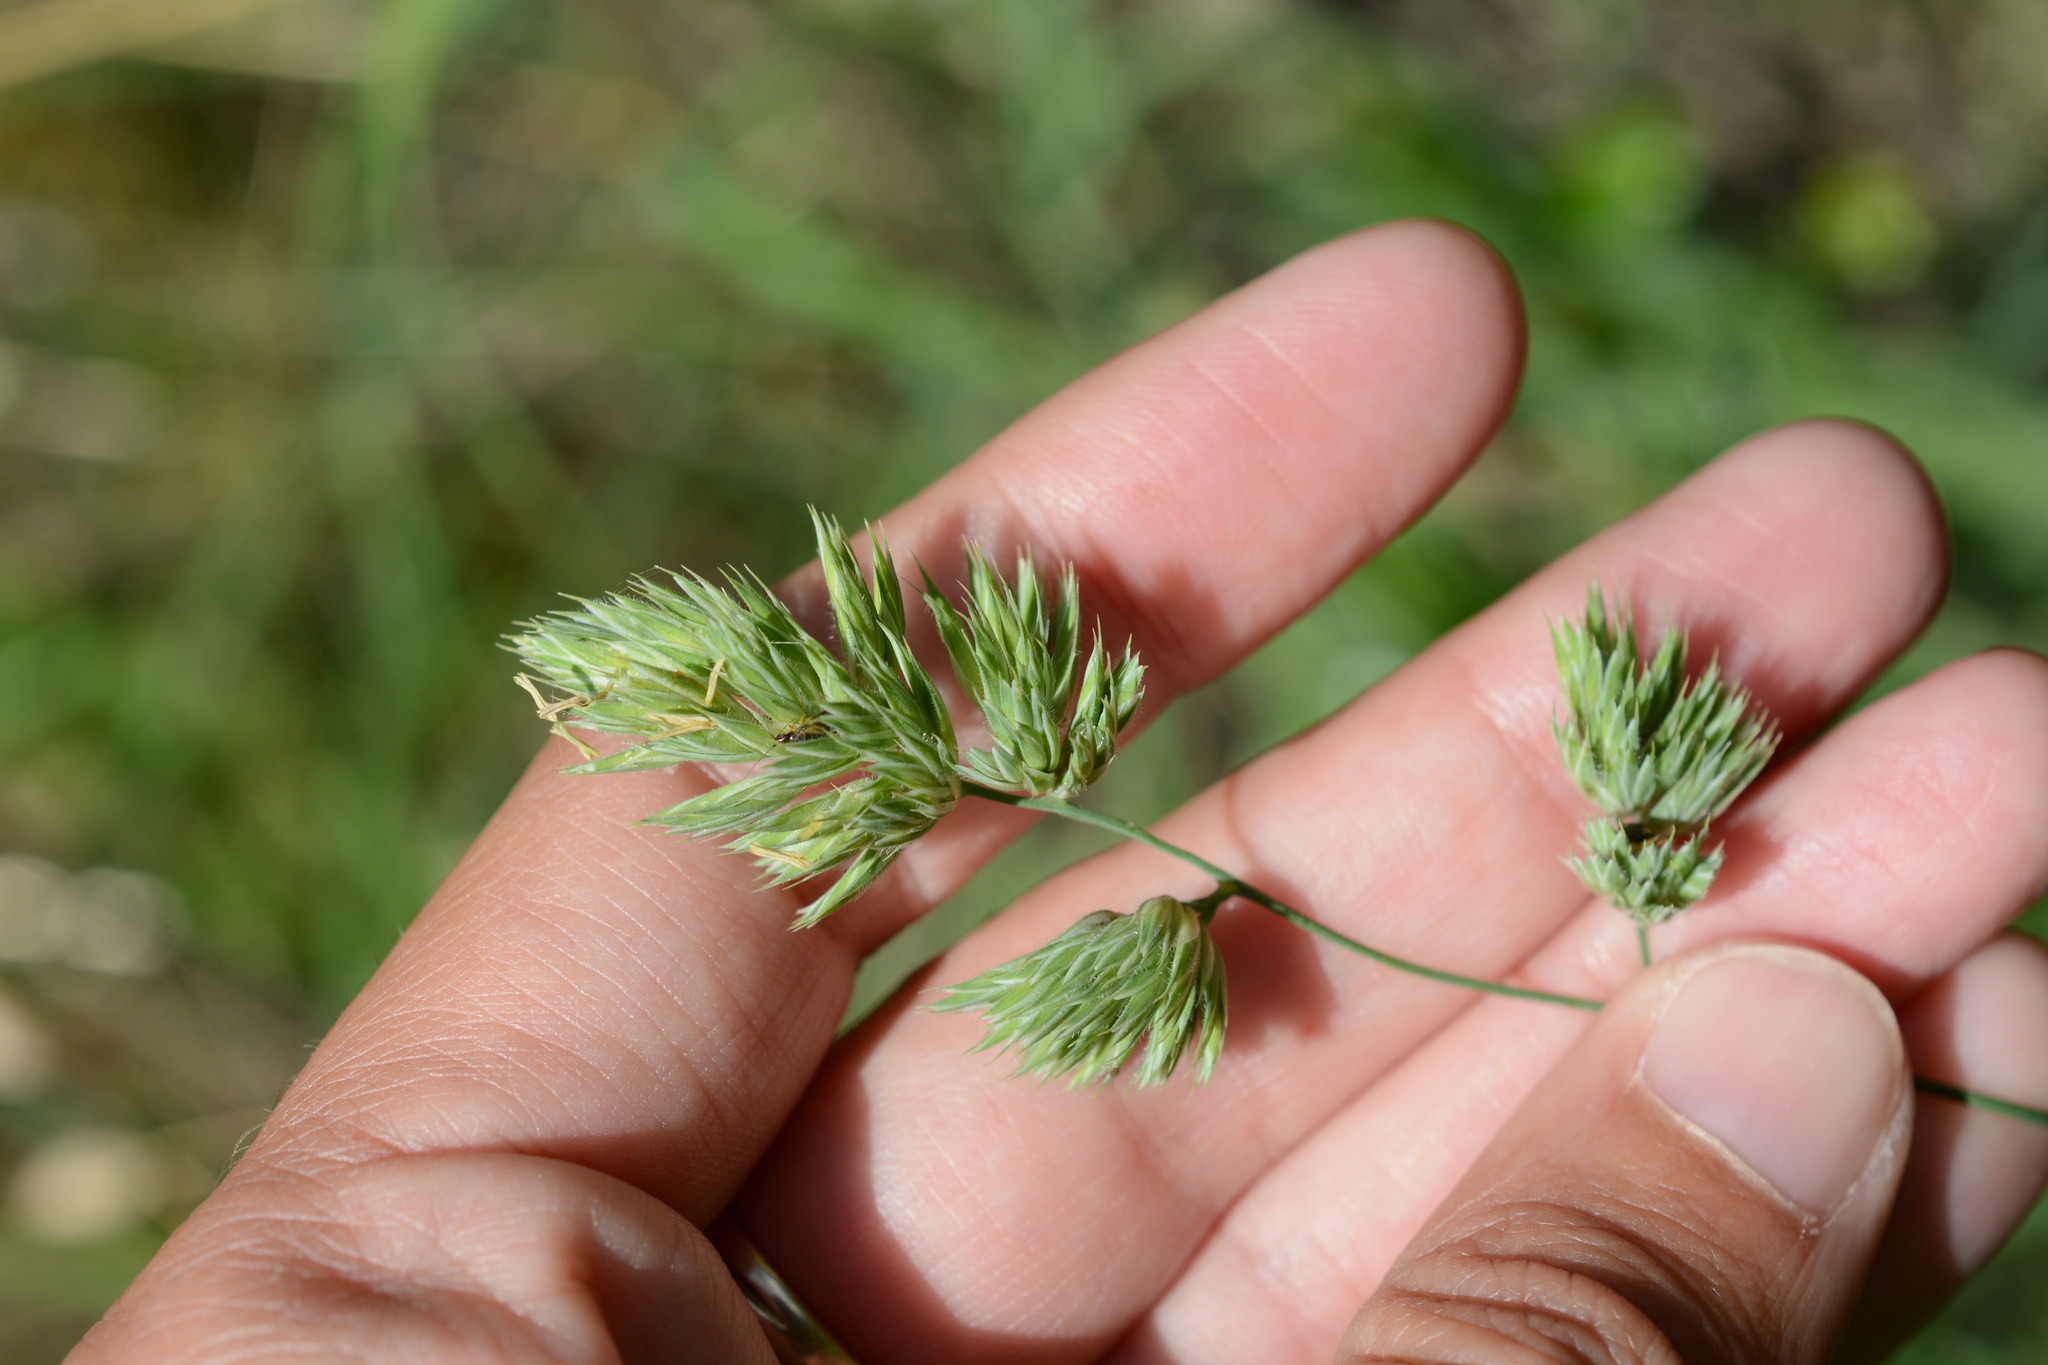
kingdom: Plantae
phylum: Tracheophyta
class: Liliopsida
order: Poales
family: Poaceae
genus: Dactylis
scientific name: Dactylis glomerata
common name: Orchardgrass
